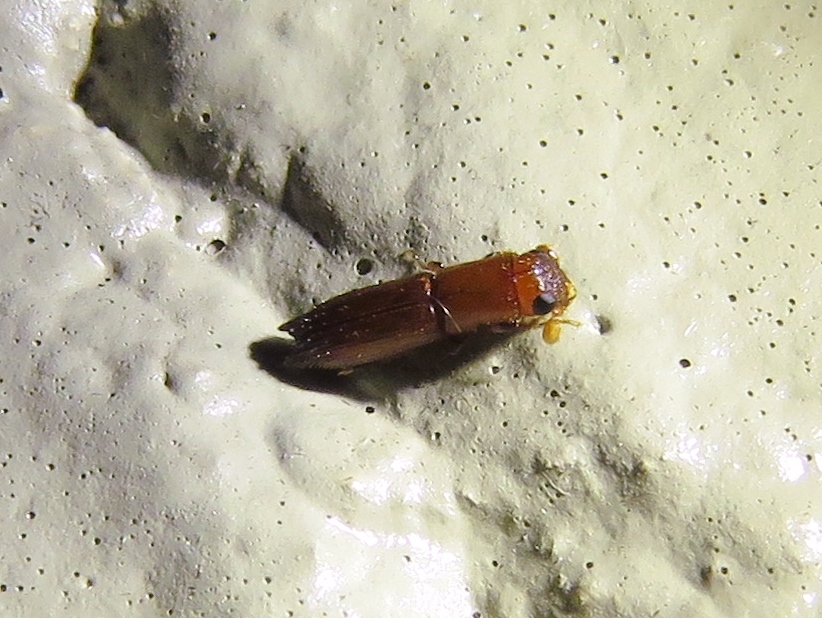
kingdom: Animalia
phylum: Arthropoda
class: Insecta
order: Coleoptera
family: Curculionidae
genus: Euplatypus
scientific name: Euplatypus compositus
